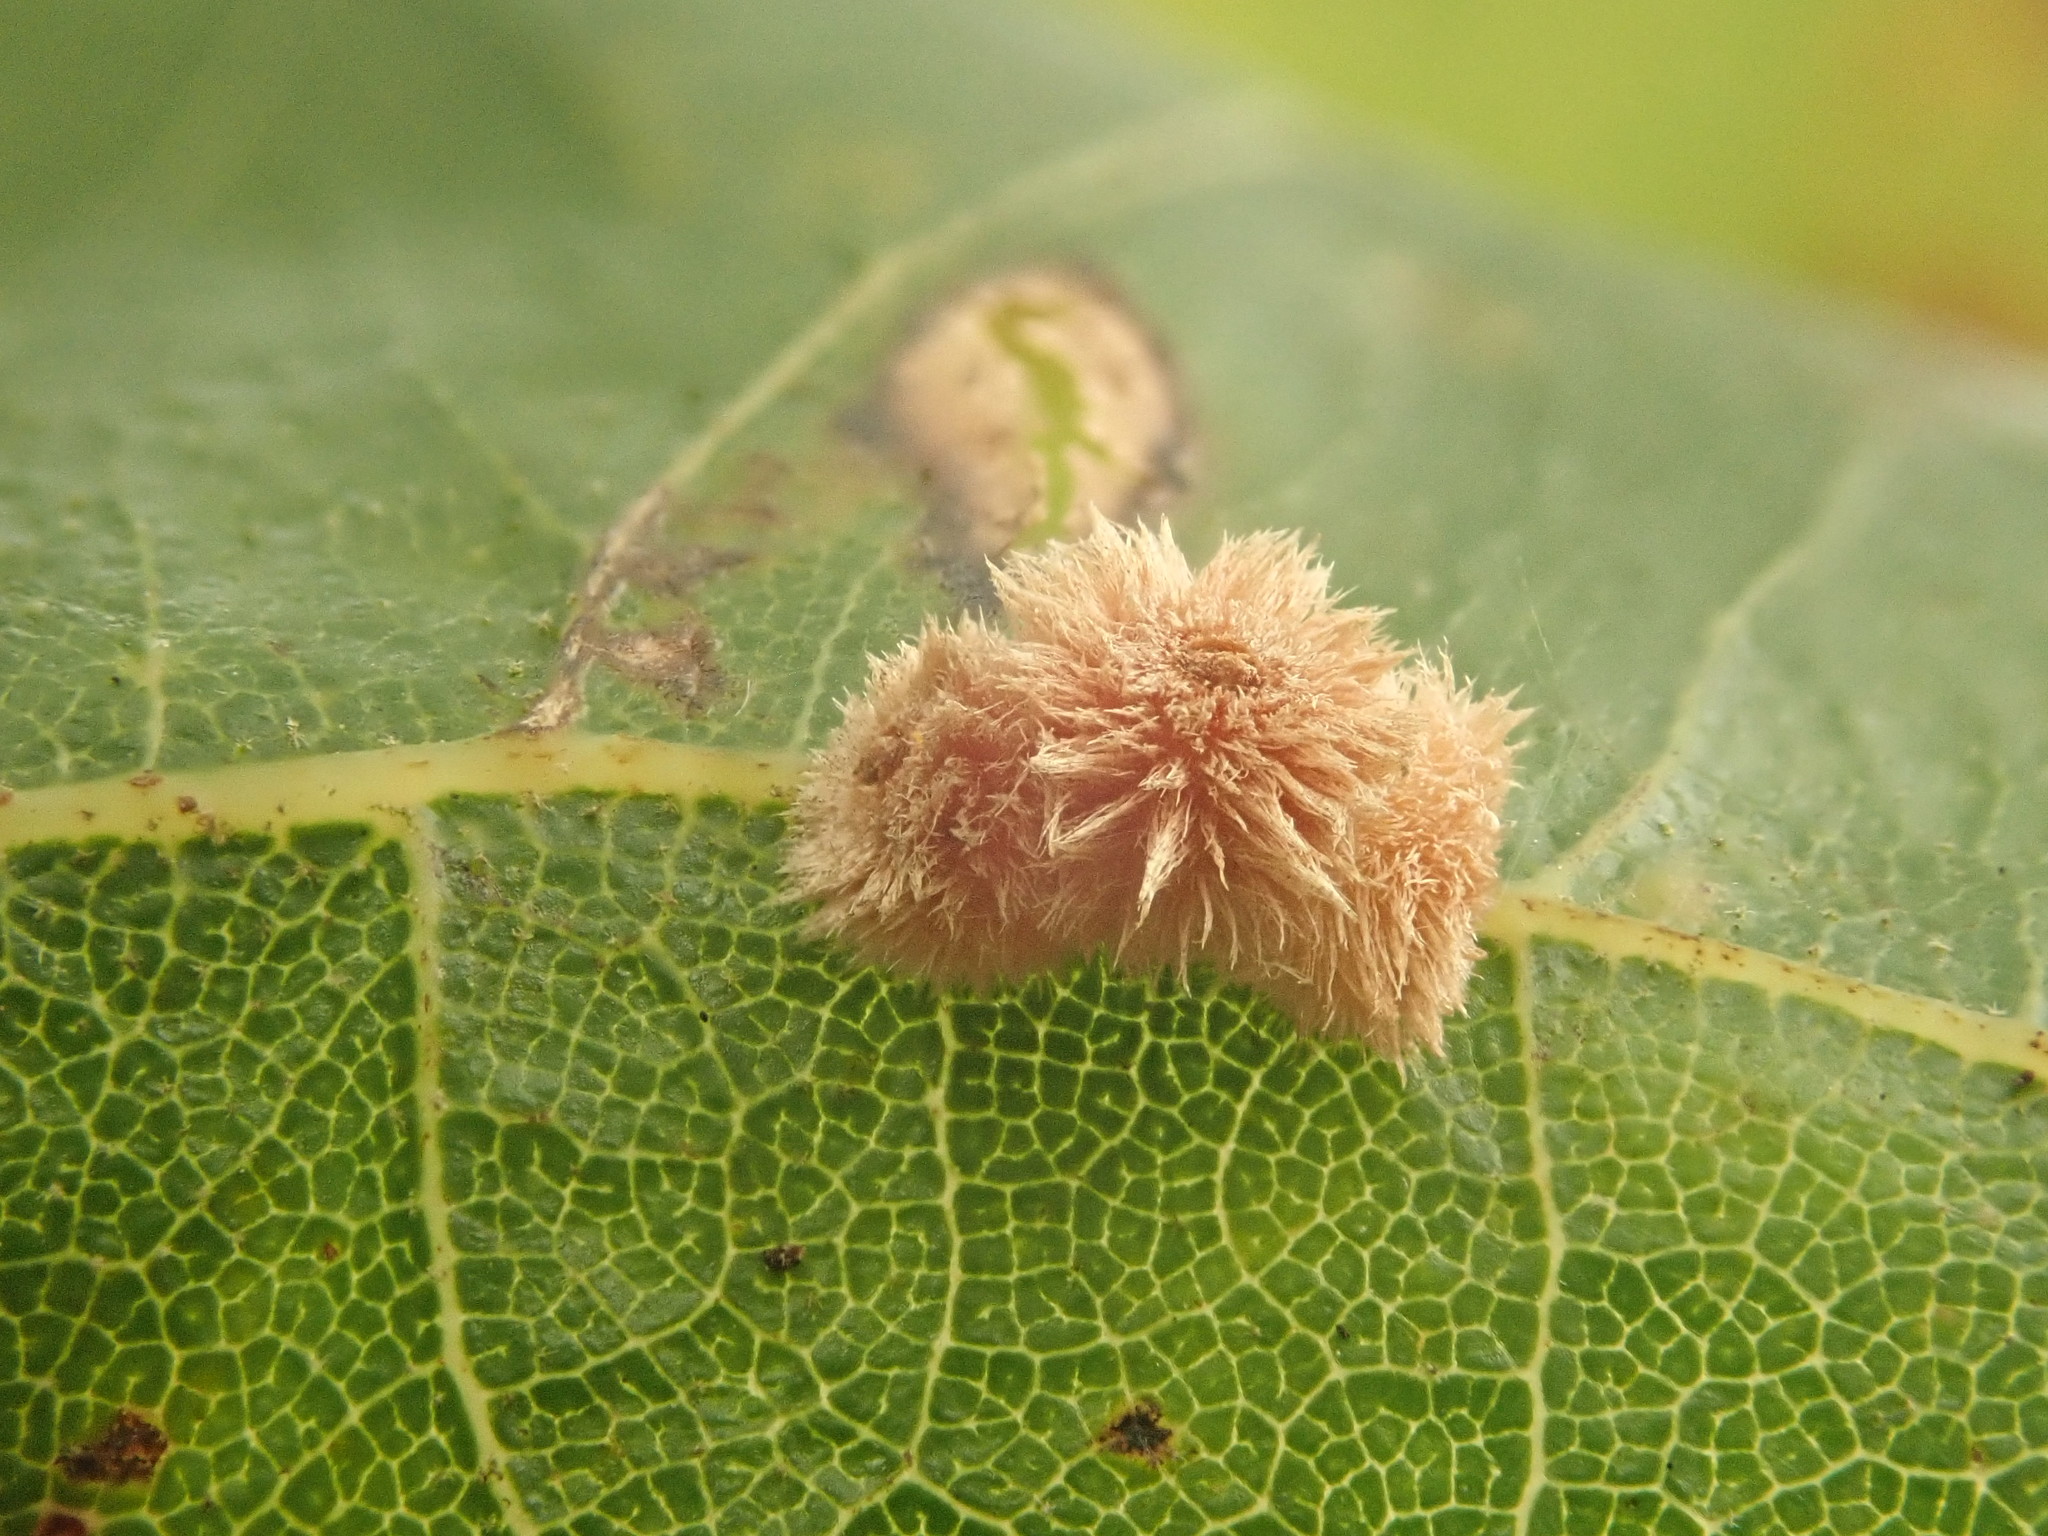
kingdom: Animalia
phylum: Arthropoda
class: Insecta
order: Hymenoptera
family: Cynipidae
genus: Biorhiza
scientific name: Biorhiza Sphaeroteras carolina
